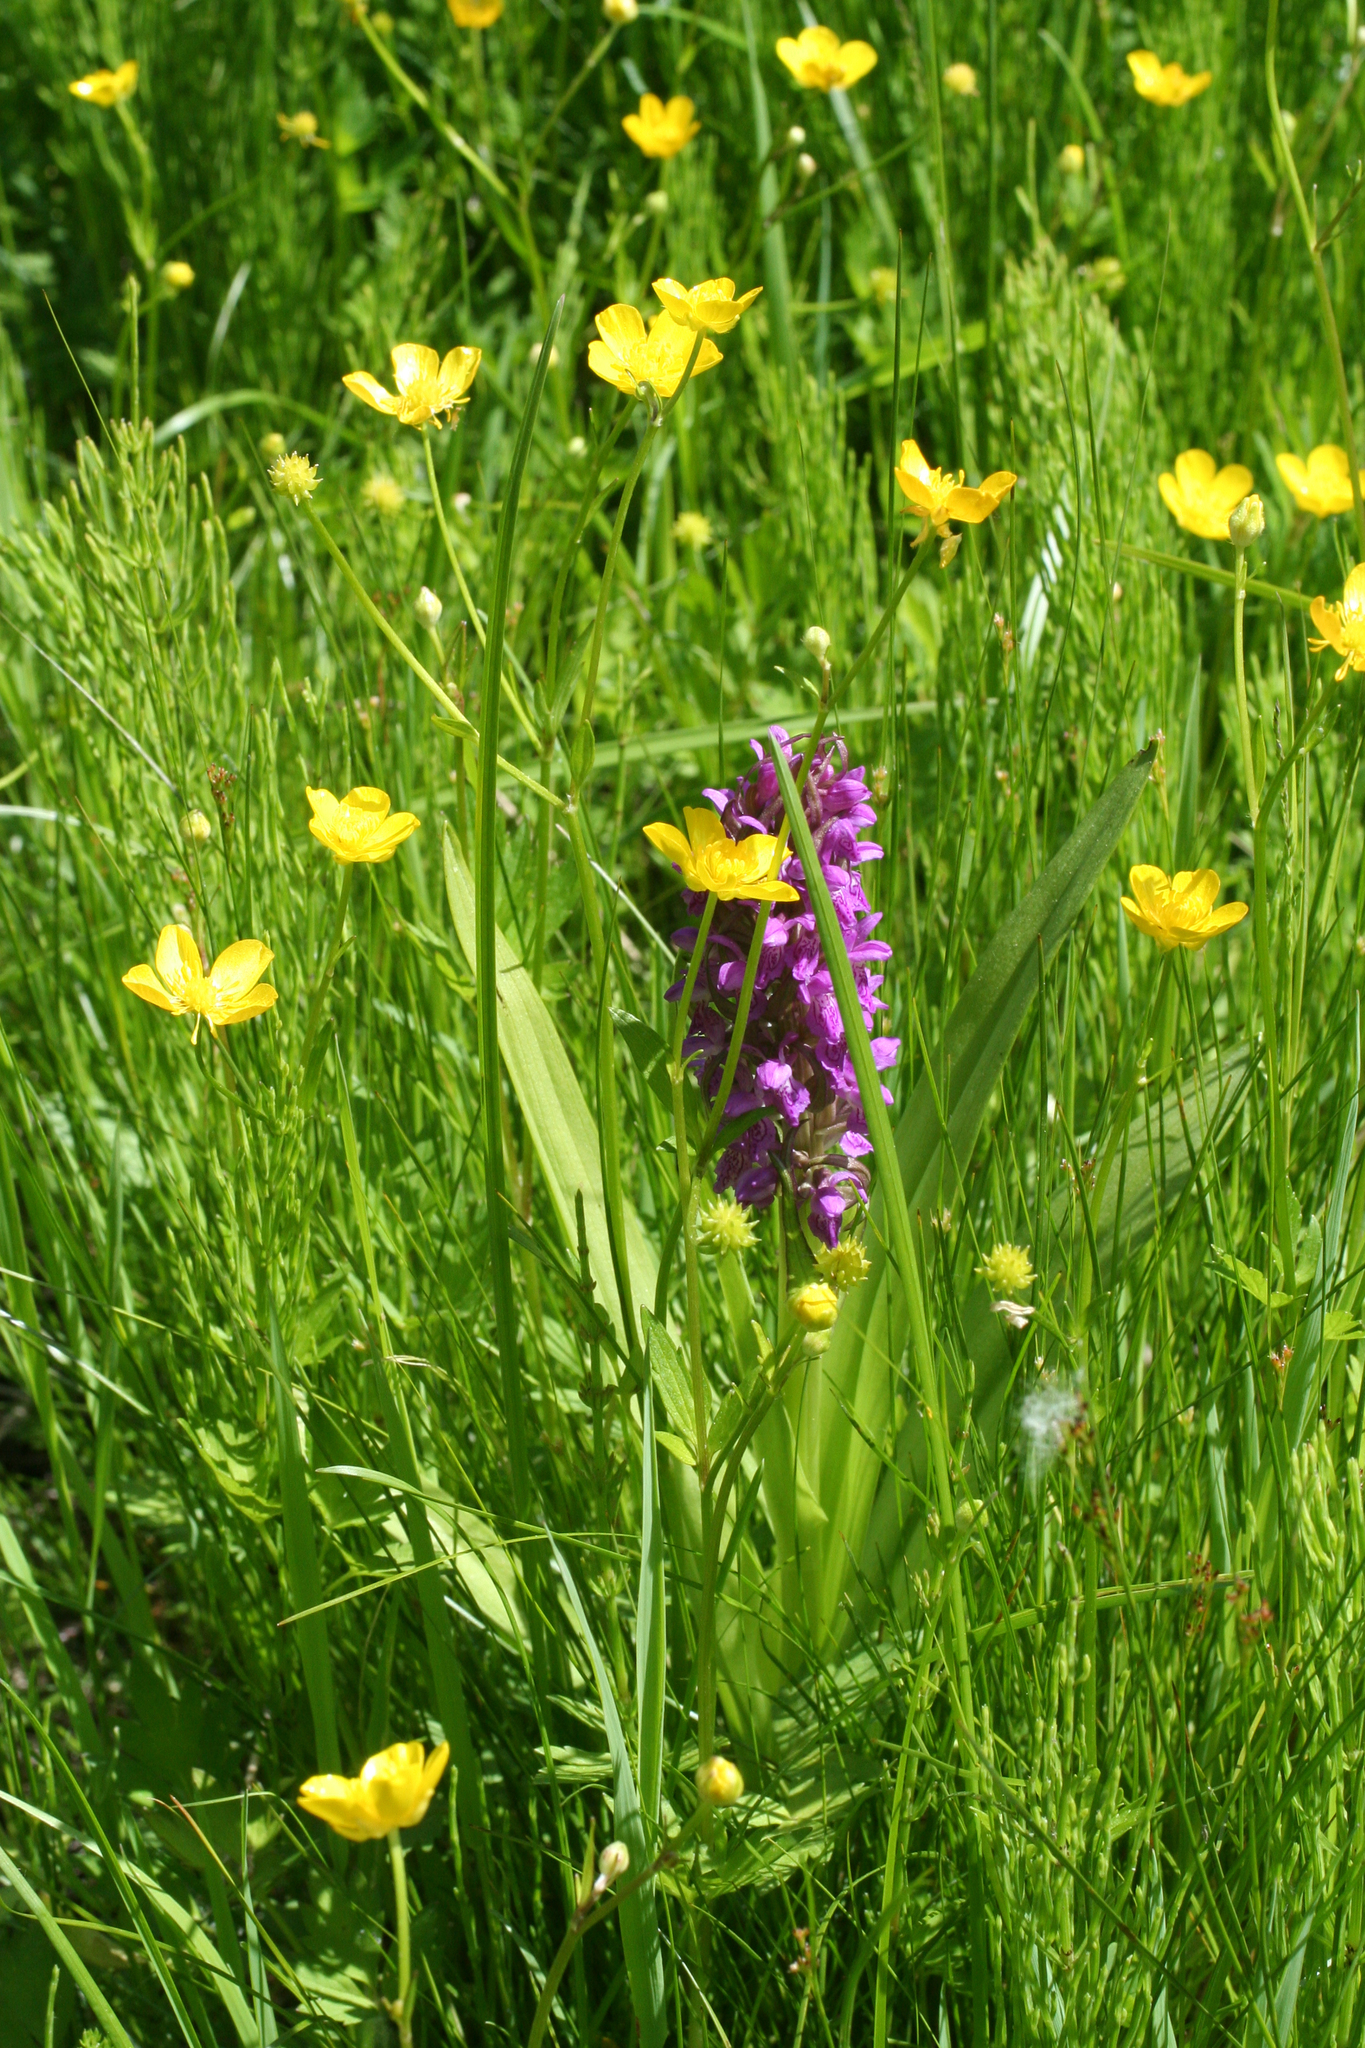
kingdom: Plantae
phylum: Tracheophyta
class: Liliopsida
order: Asparagales
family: Orchidaceae
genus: Dactylorhiza
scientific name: Dactylorhiza incarnata
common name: Early marsh-orchid
